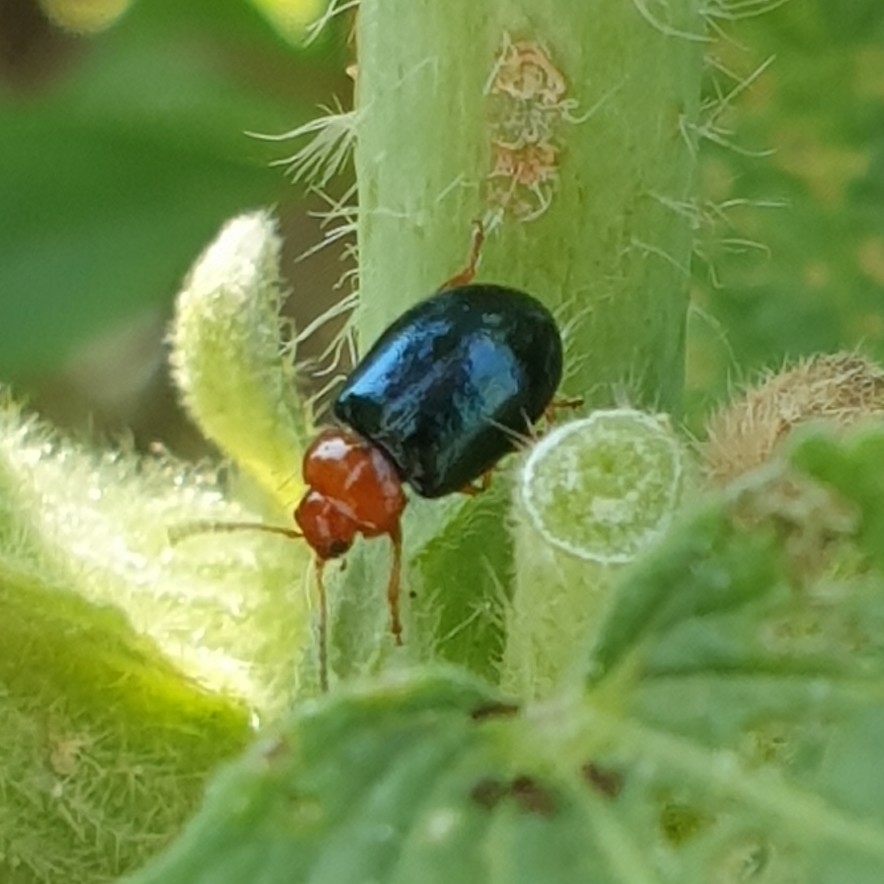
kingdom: Animalia
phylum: Arthropoda
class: Insecta
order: Coleoptera
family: Chrysomelidae
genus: Podagrica
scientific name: Podagrica fuscicornis
